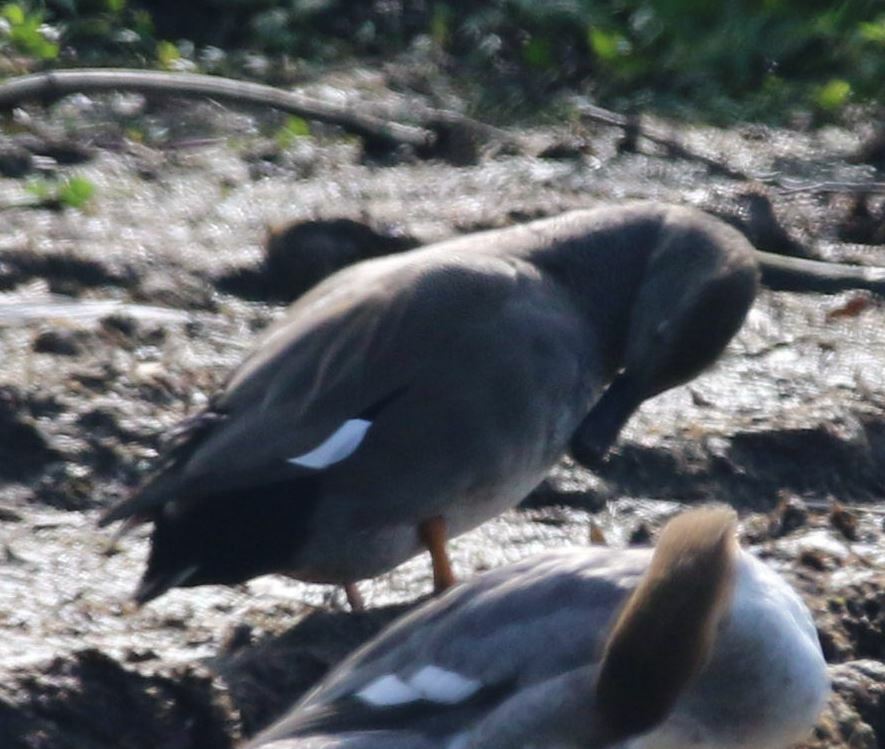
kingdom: Animalia
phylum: Chordata
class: Aves
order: Anseriformes
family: Anatidae
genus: Mareca
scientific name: Mareca strepera
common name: Gadwall
